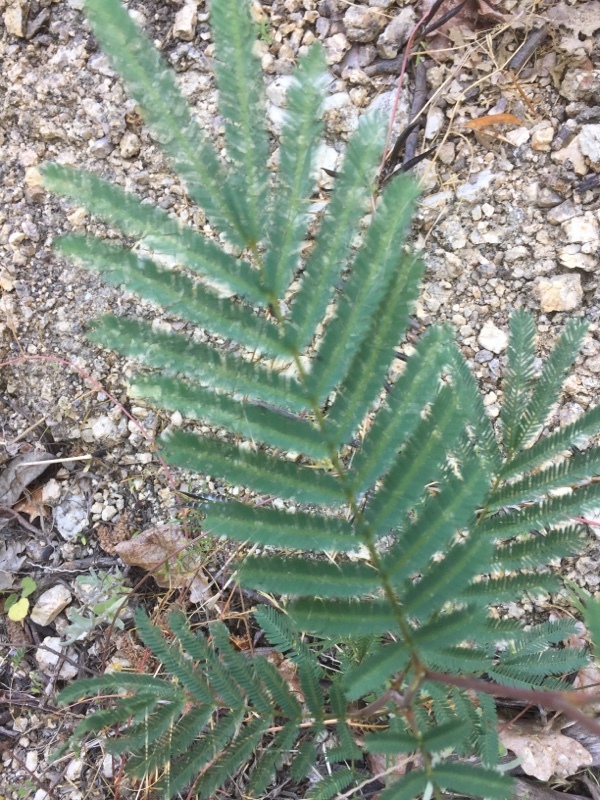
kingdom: Plantae
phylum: Tracheophyta
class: Magnoliopsida
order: Fabales
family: Fabaceae
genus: Acacia
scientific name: Acacia dealbata
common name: Silver wattle
